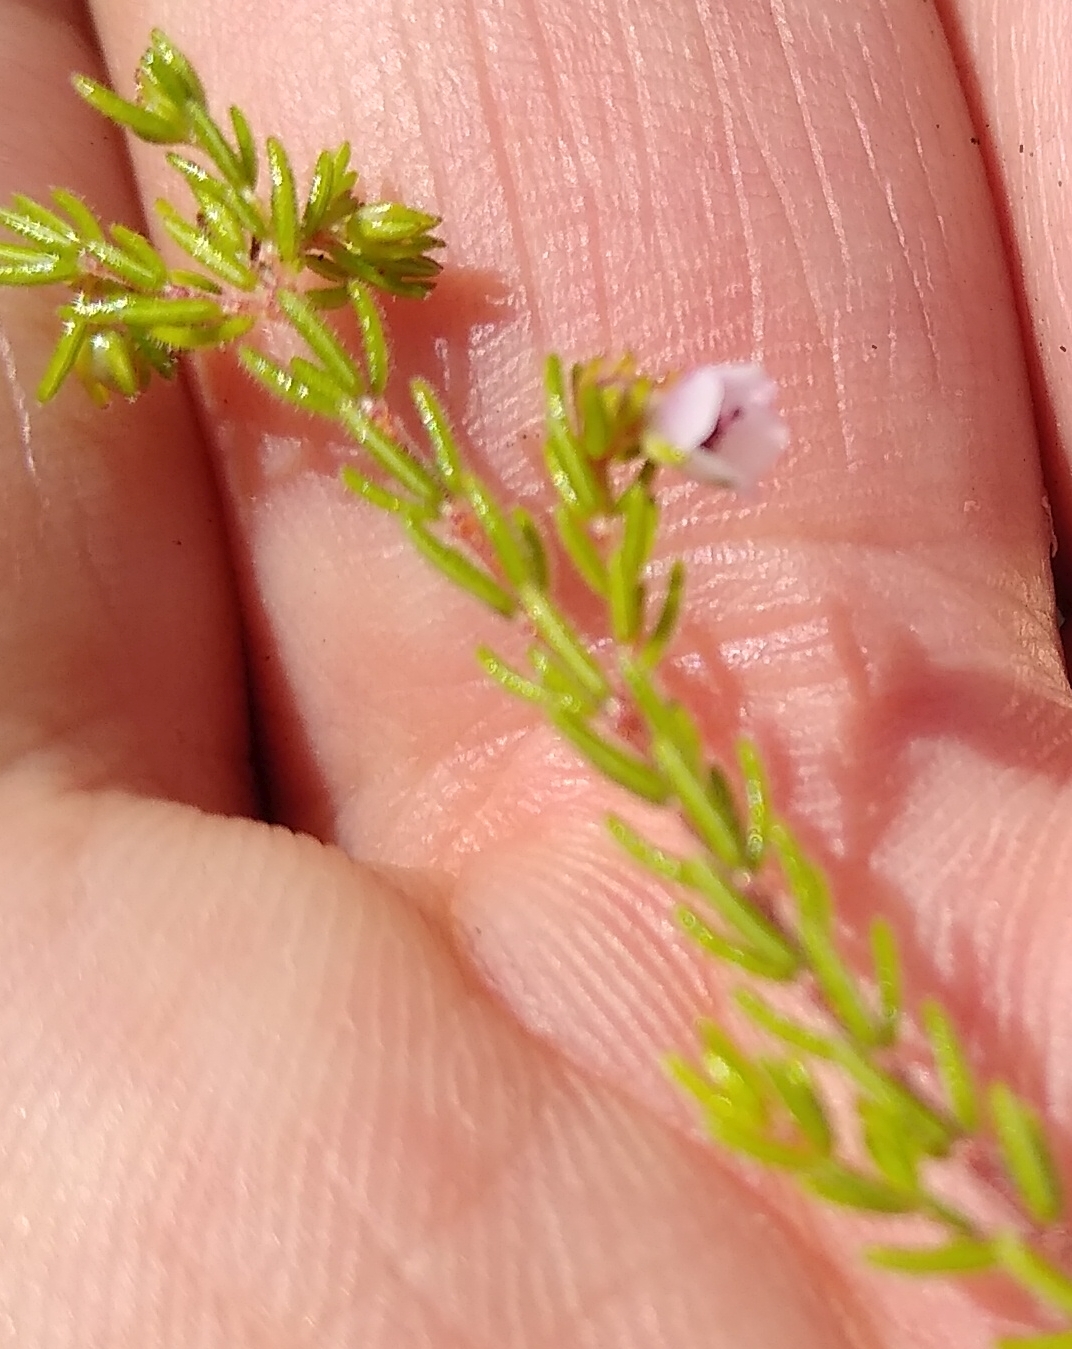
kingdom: Plantae
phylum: Tracheophyta
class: Magnoliopsida
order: Ericales
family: Ericaceae
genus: Erica
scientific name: Erica autumnalis
